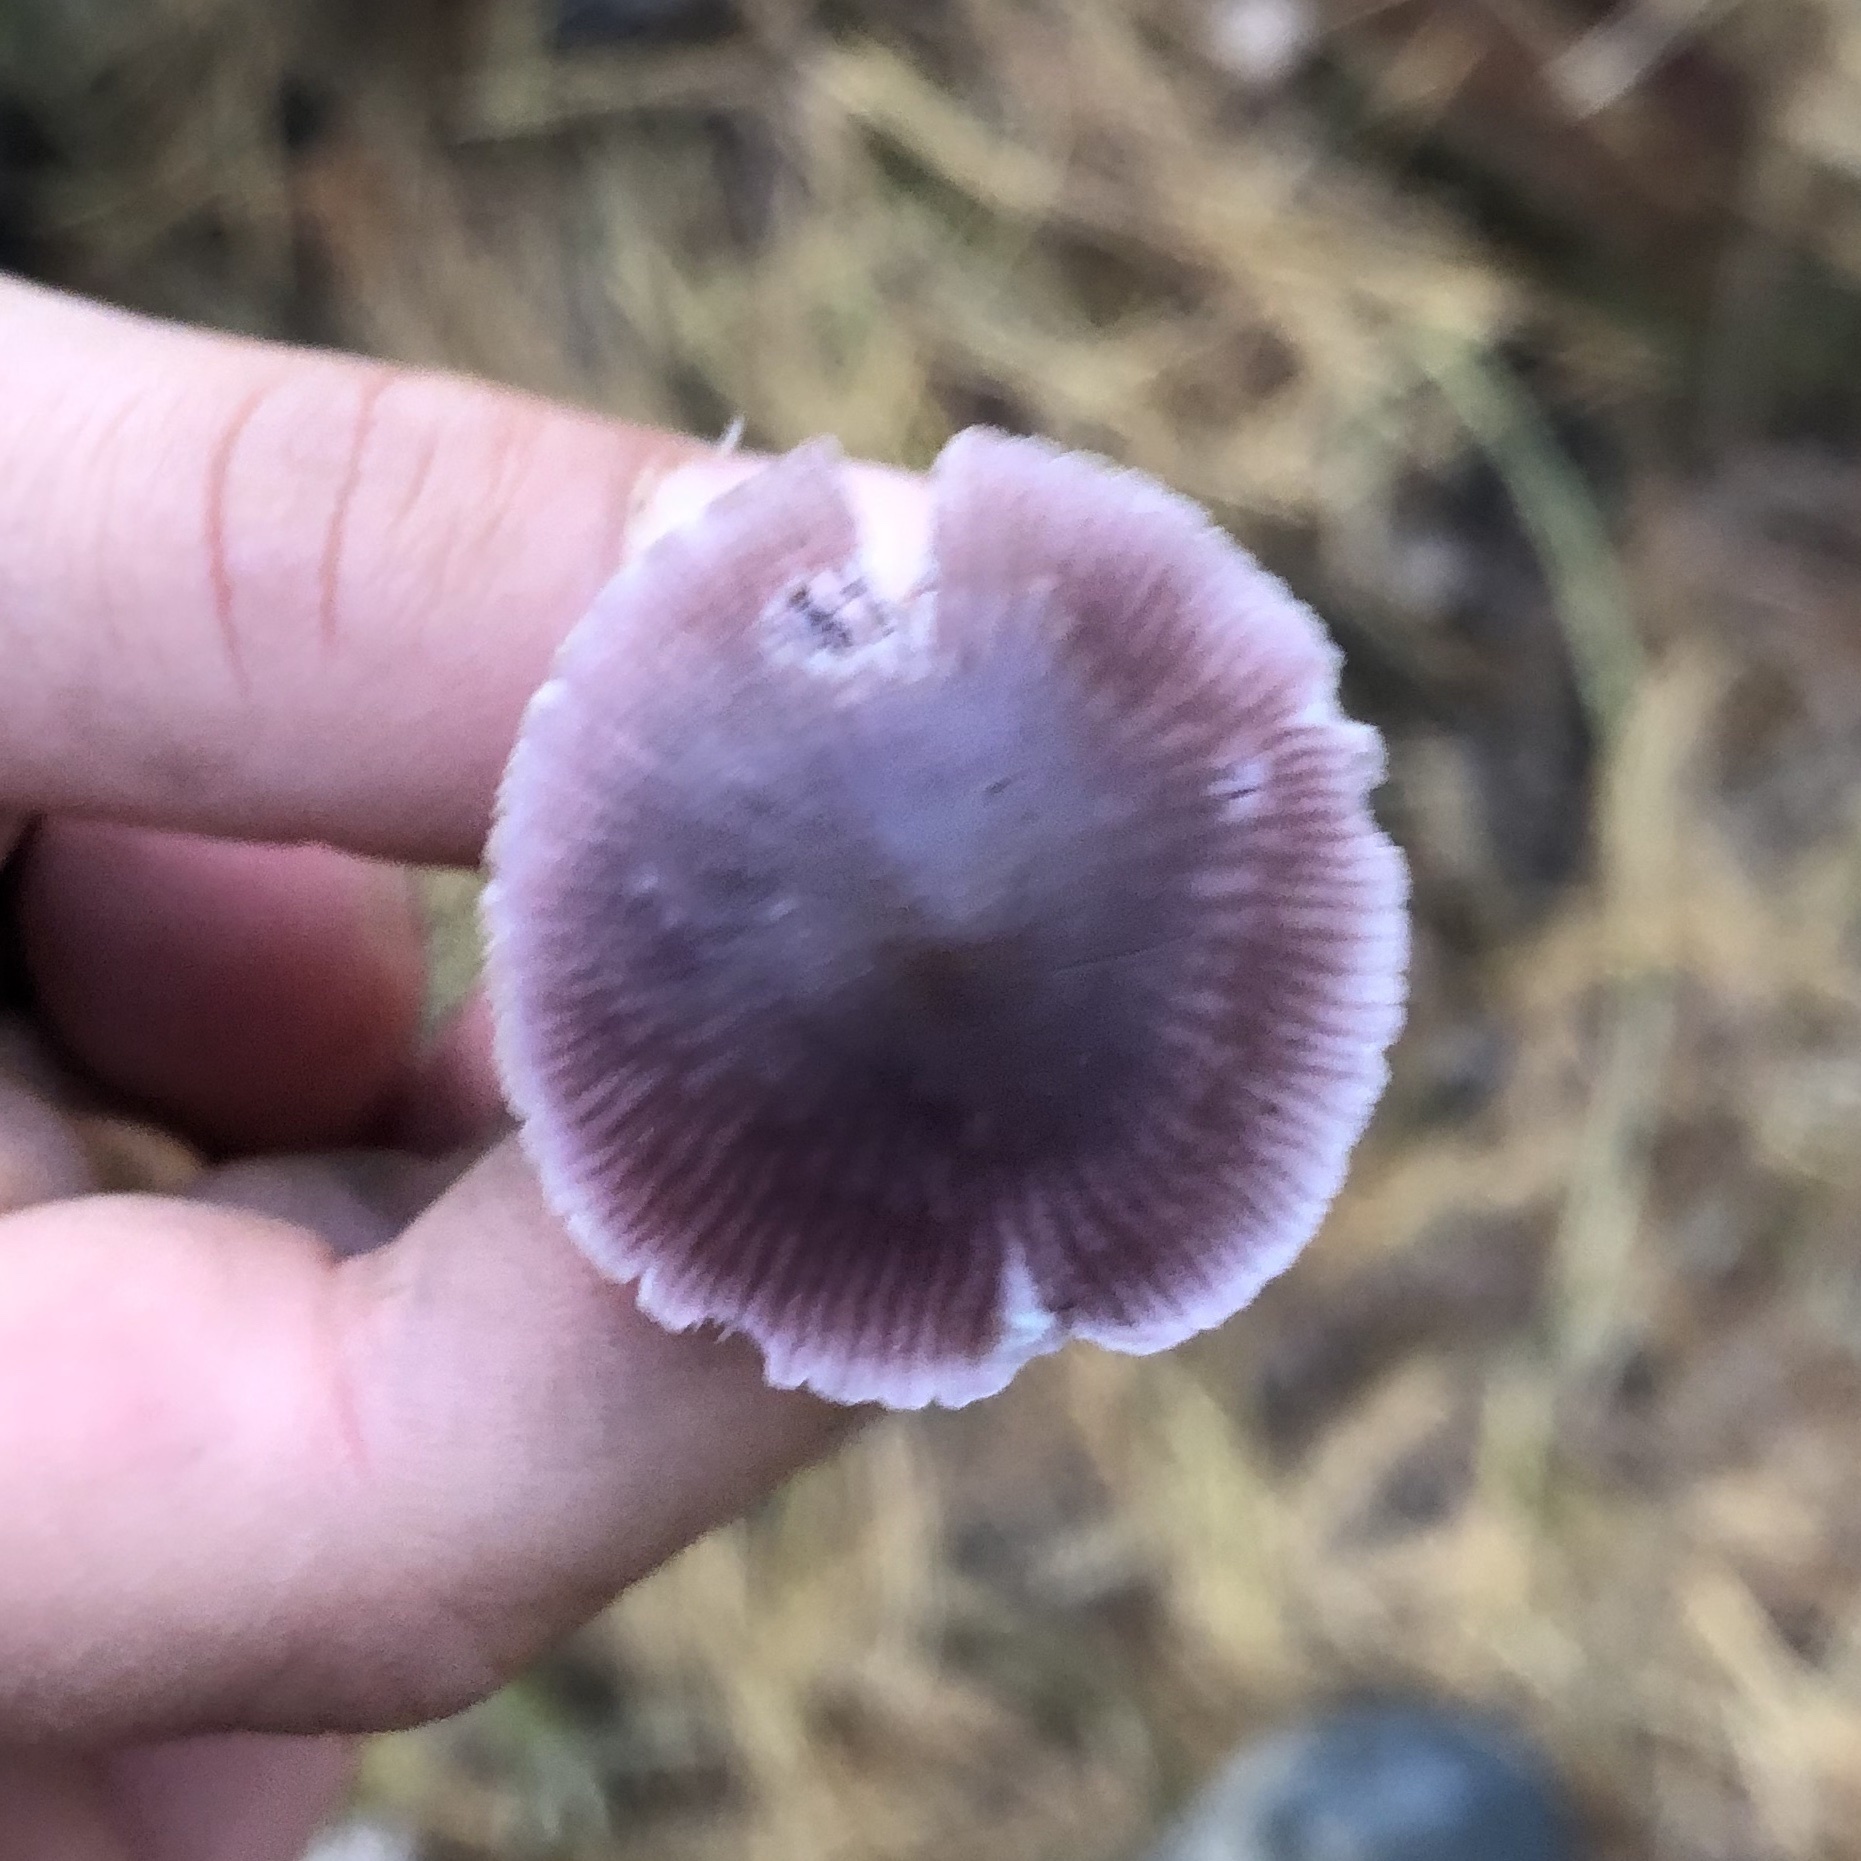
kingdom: Fungi
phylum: Basidiomycota
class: Agaricomycetes
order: Agaricales
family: Mycenaceae
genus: Mycena
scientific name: Mycena pura
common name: Lilac bonnet
